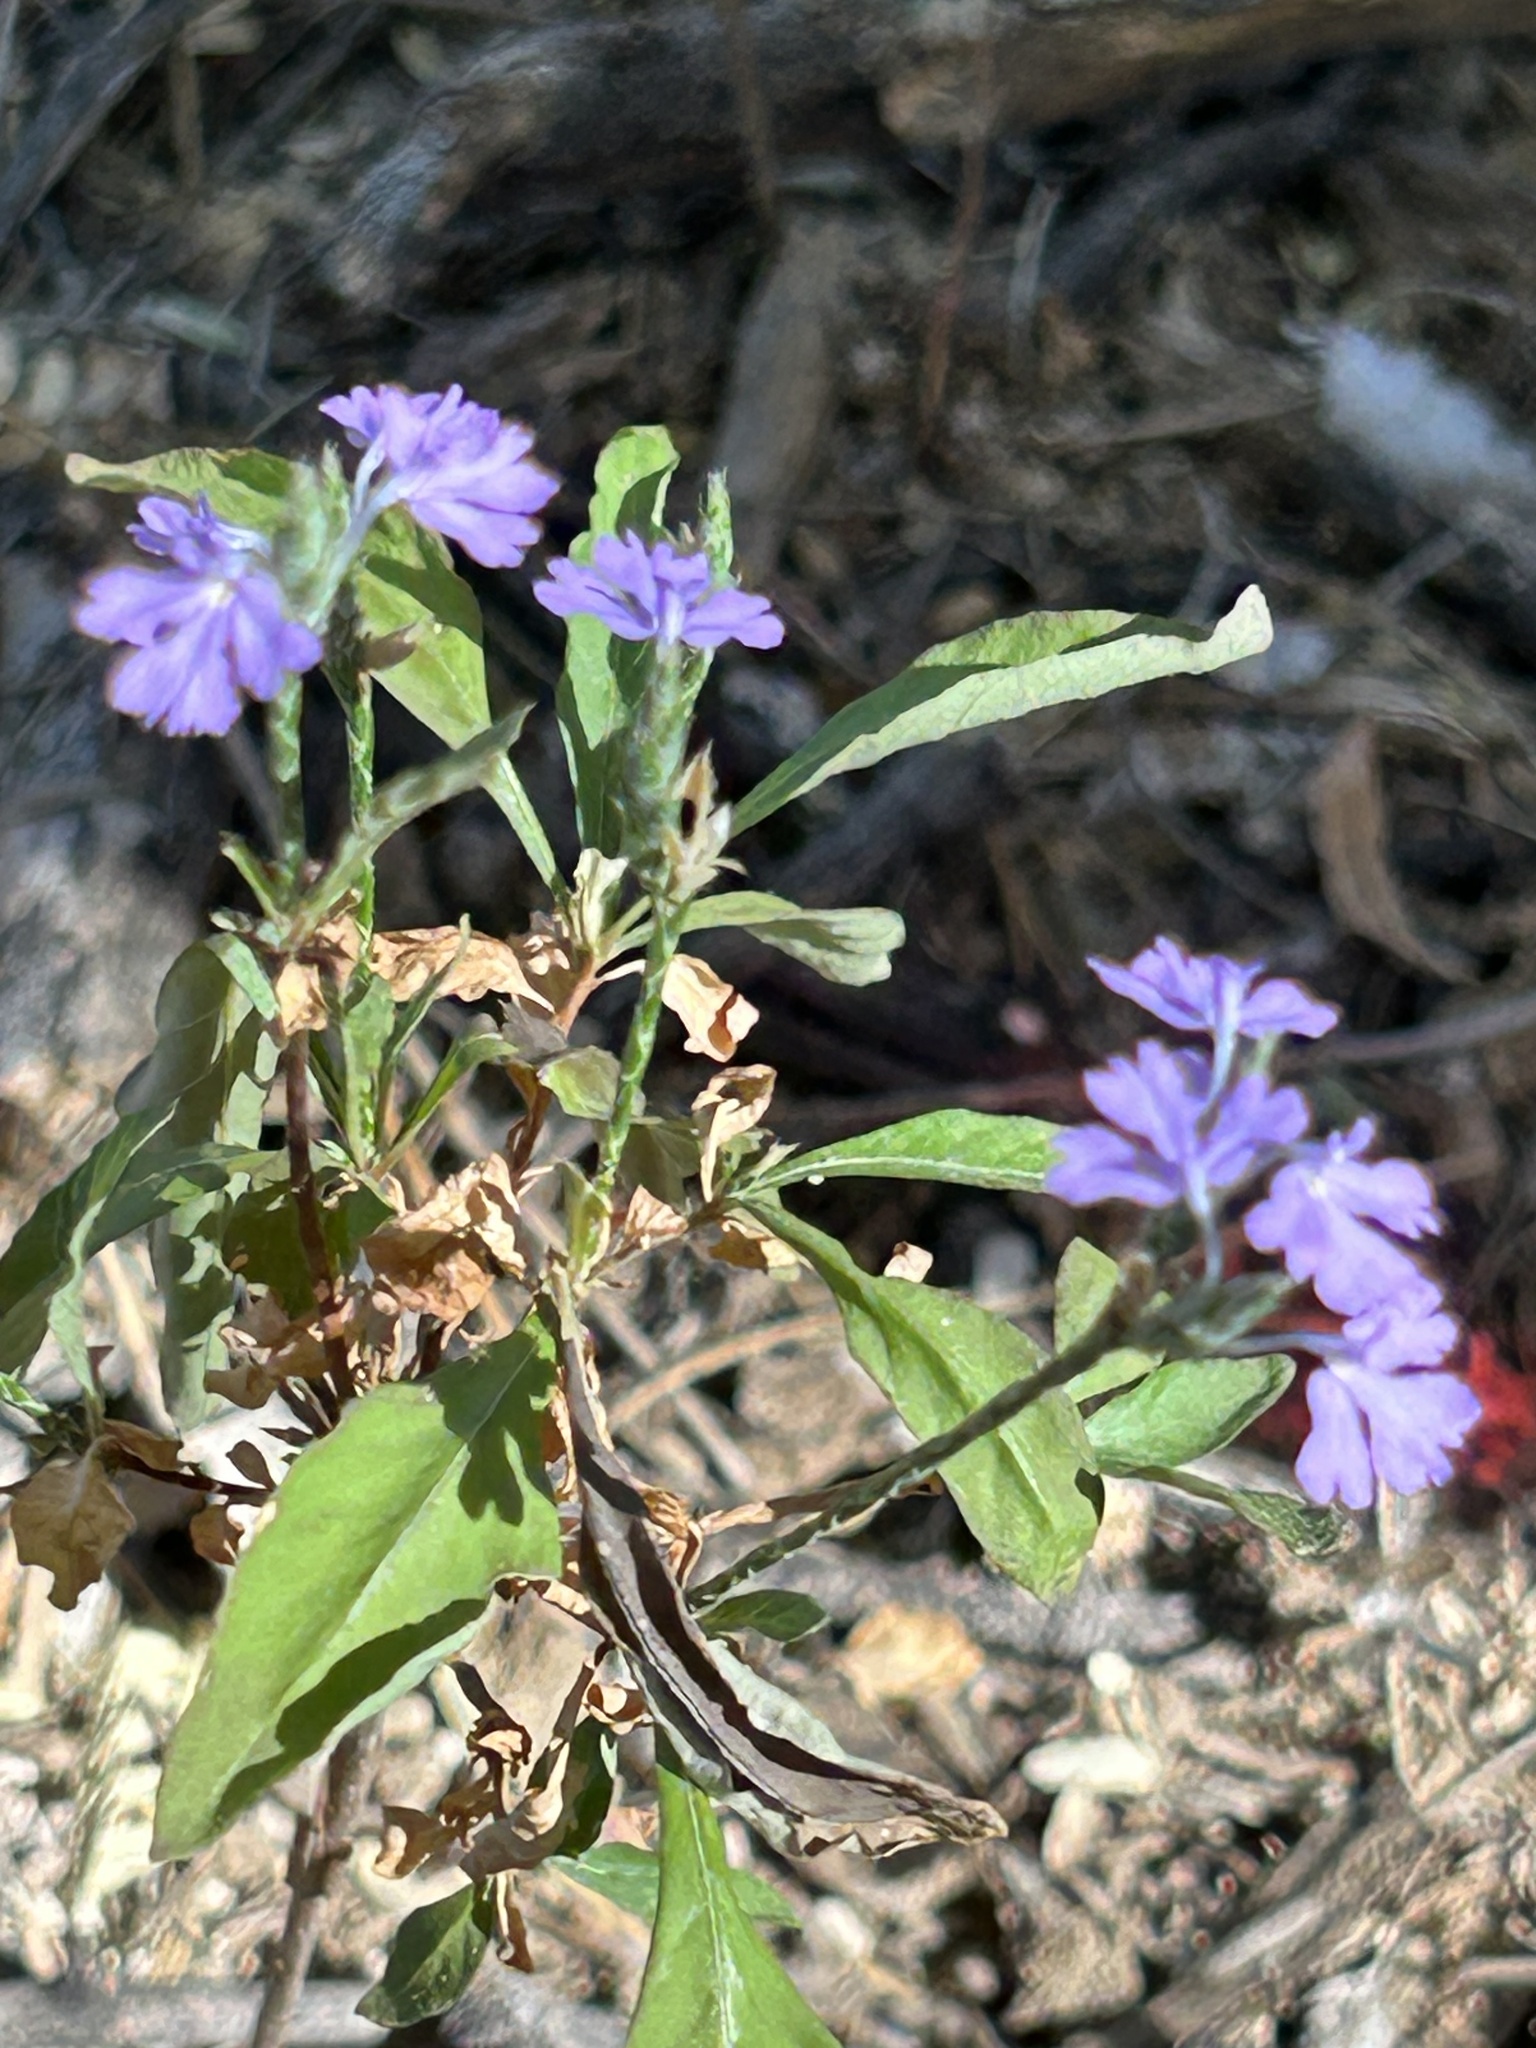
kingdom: Plantae
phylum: Tracheophyta
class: Magnoliopsida
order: Lamiales
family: Acanthaceae
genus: Elytraria
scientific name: Elytraria imbricata
